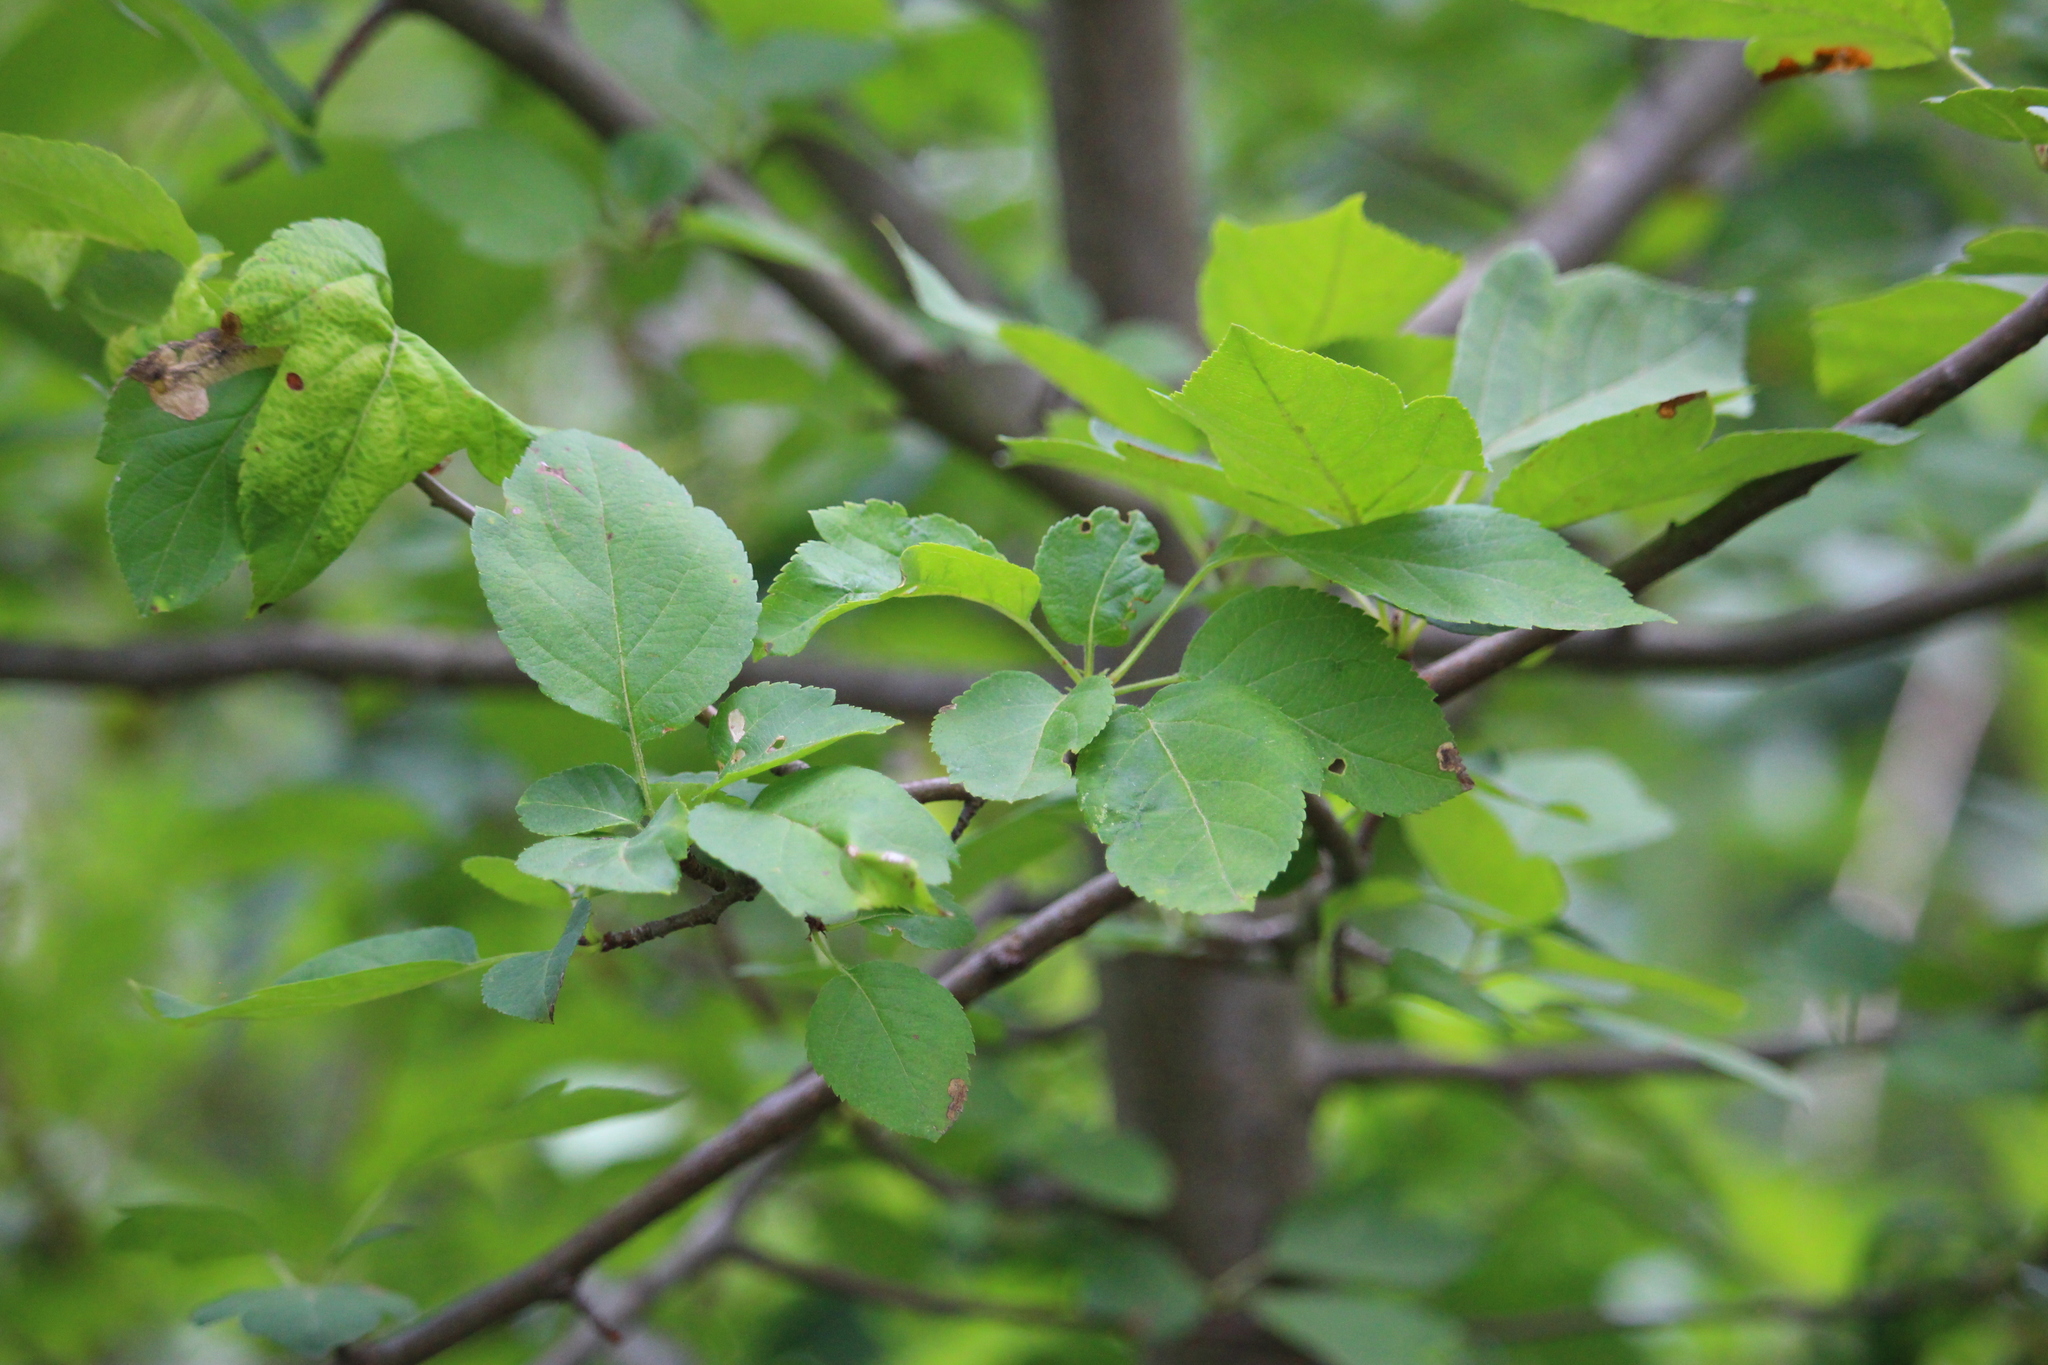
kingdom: Plantae
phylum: Tracheophyta
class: Magnoliopsida
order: Rosales
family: Rosaceae
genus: Malus
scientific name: Malus fusca
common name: Oregon crab apple
